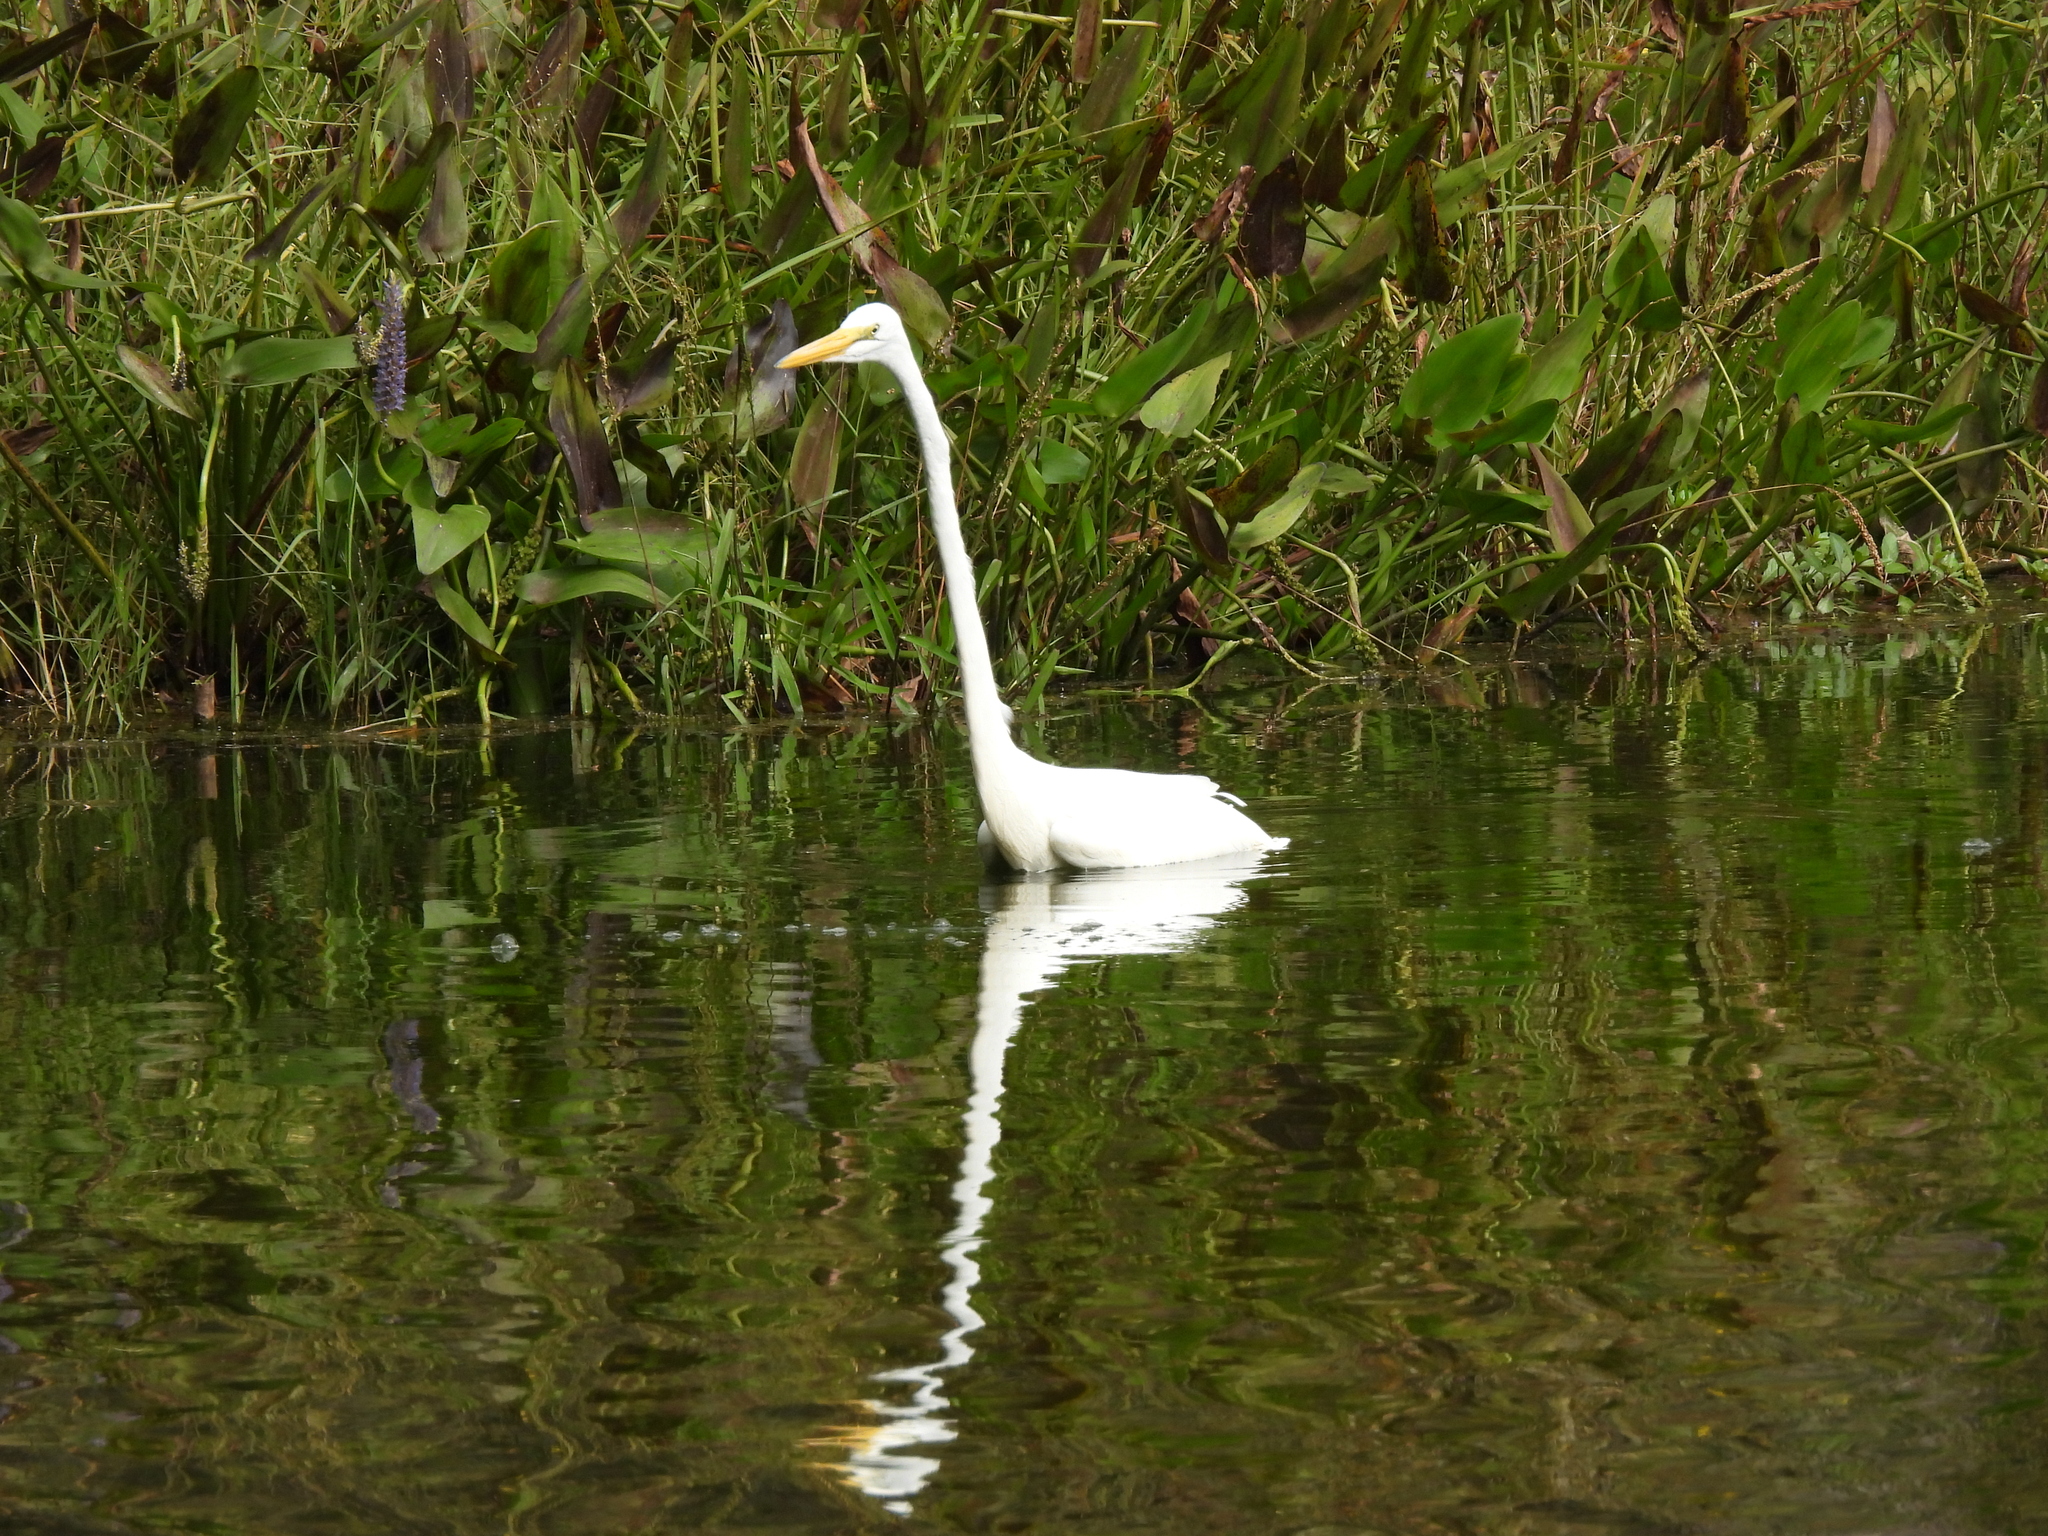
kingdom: Animalia
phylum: Chordata
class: Aves
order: Pelecaniformes
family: Ardeidae
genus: Ardea
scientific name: Ardea alba
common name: Great egret
